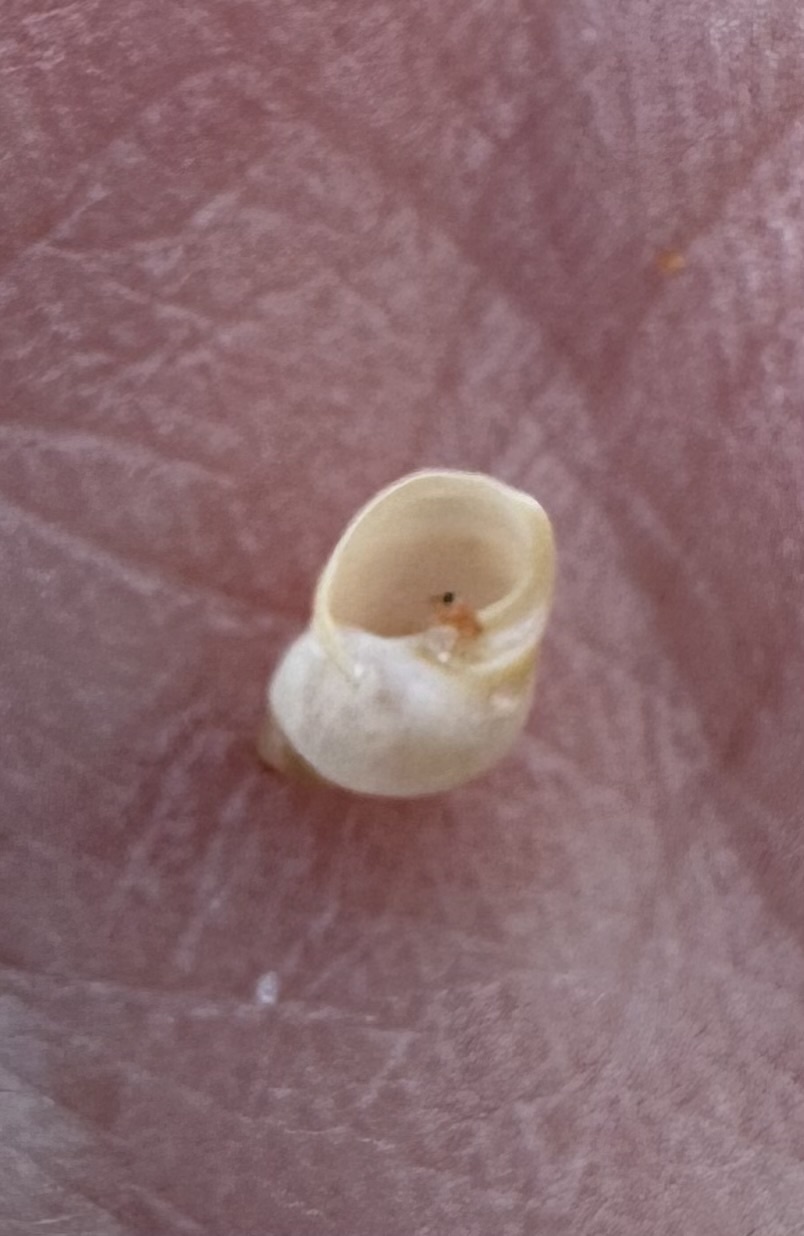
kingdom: Animalia
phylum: Mollusca
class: Gastropoda
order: Littorinimorpha
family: Littorinidae
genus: Lacuna
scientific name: Lacuna vincta
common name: Banded chink shell
